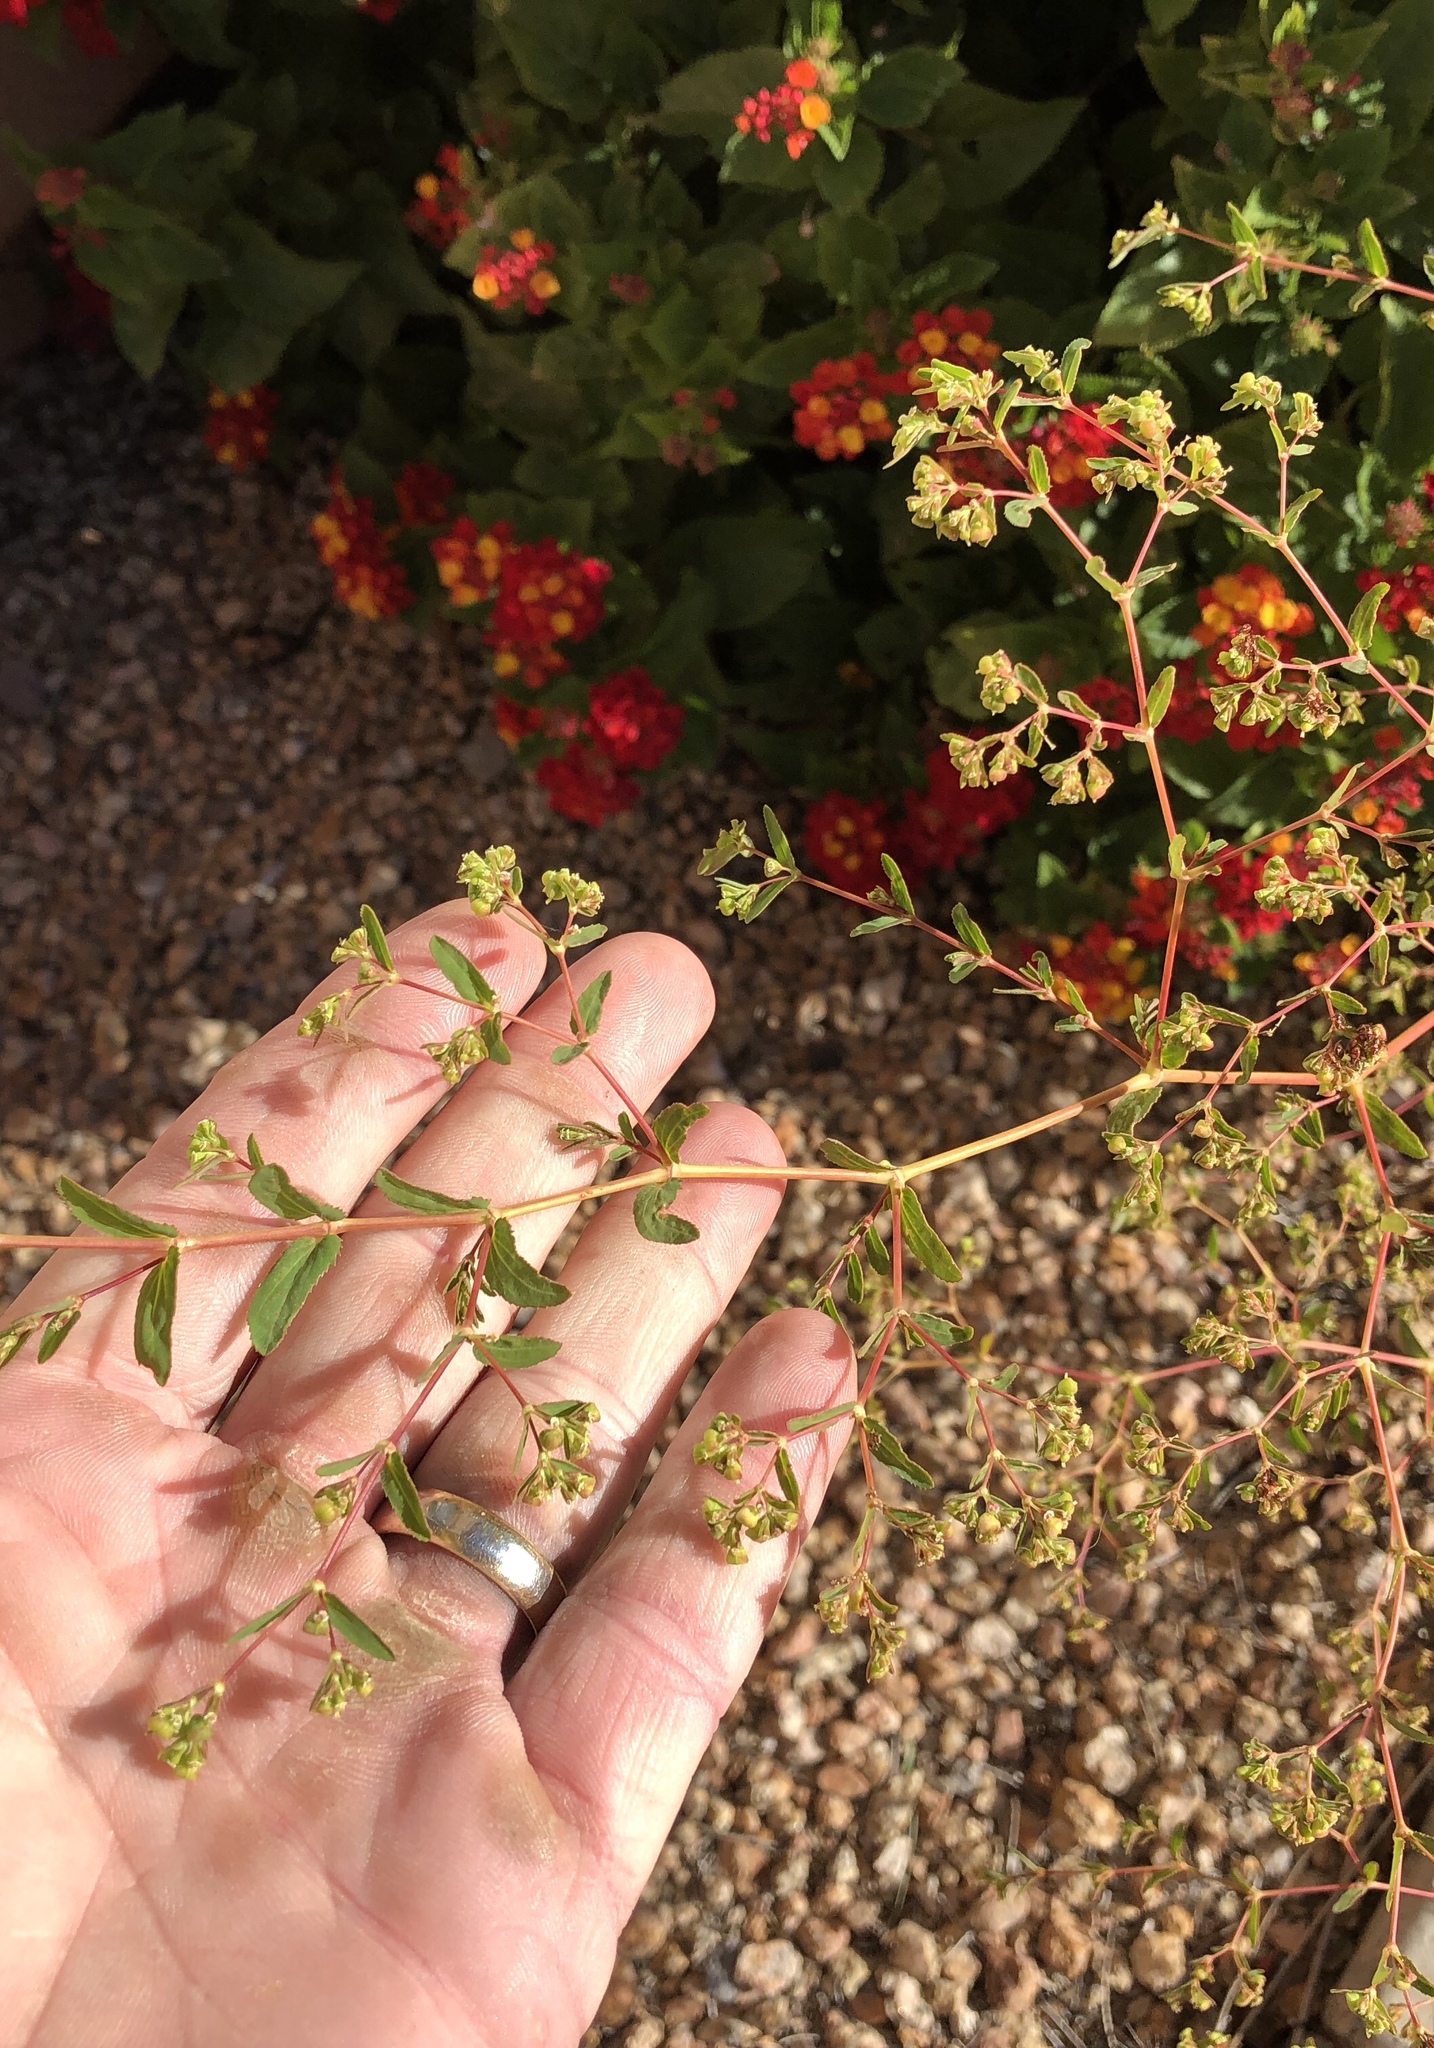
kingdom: Plantae
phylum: Tracheophyta
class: Magnoliopsida
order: Malpighiales
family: Euphorbiaceae
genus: Euphorbia
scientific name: Euphorbia hyssopifolia
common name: Hyssopleaf sandmat
